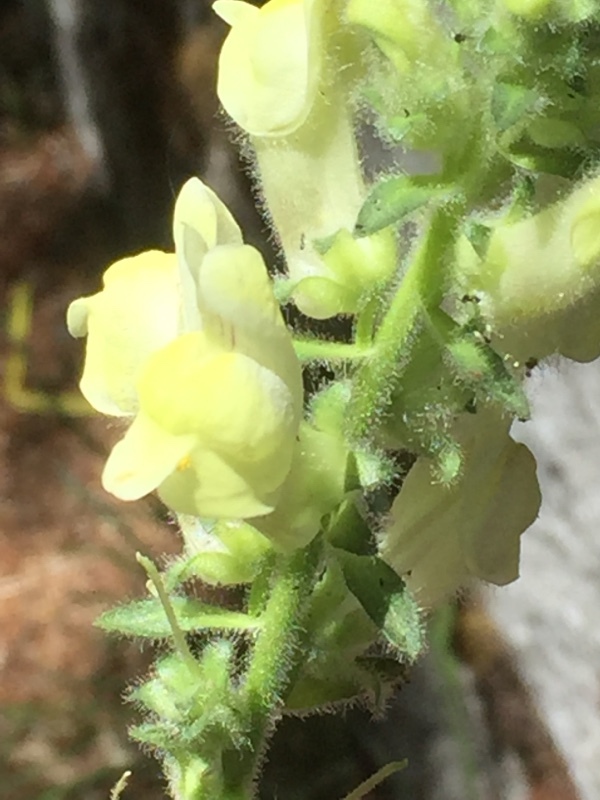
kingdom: Plantae
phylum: Tracheophyta
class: Magnoliopsida
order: Lamiales
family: Plantaginaceae
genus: Antirrhinum
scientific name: Antirrhinum meonanthum
